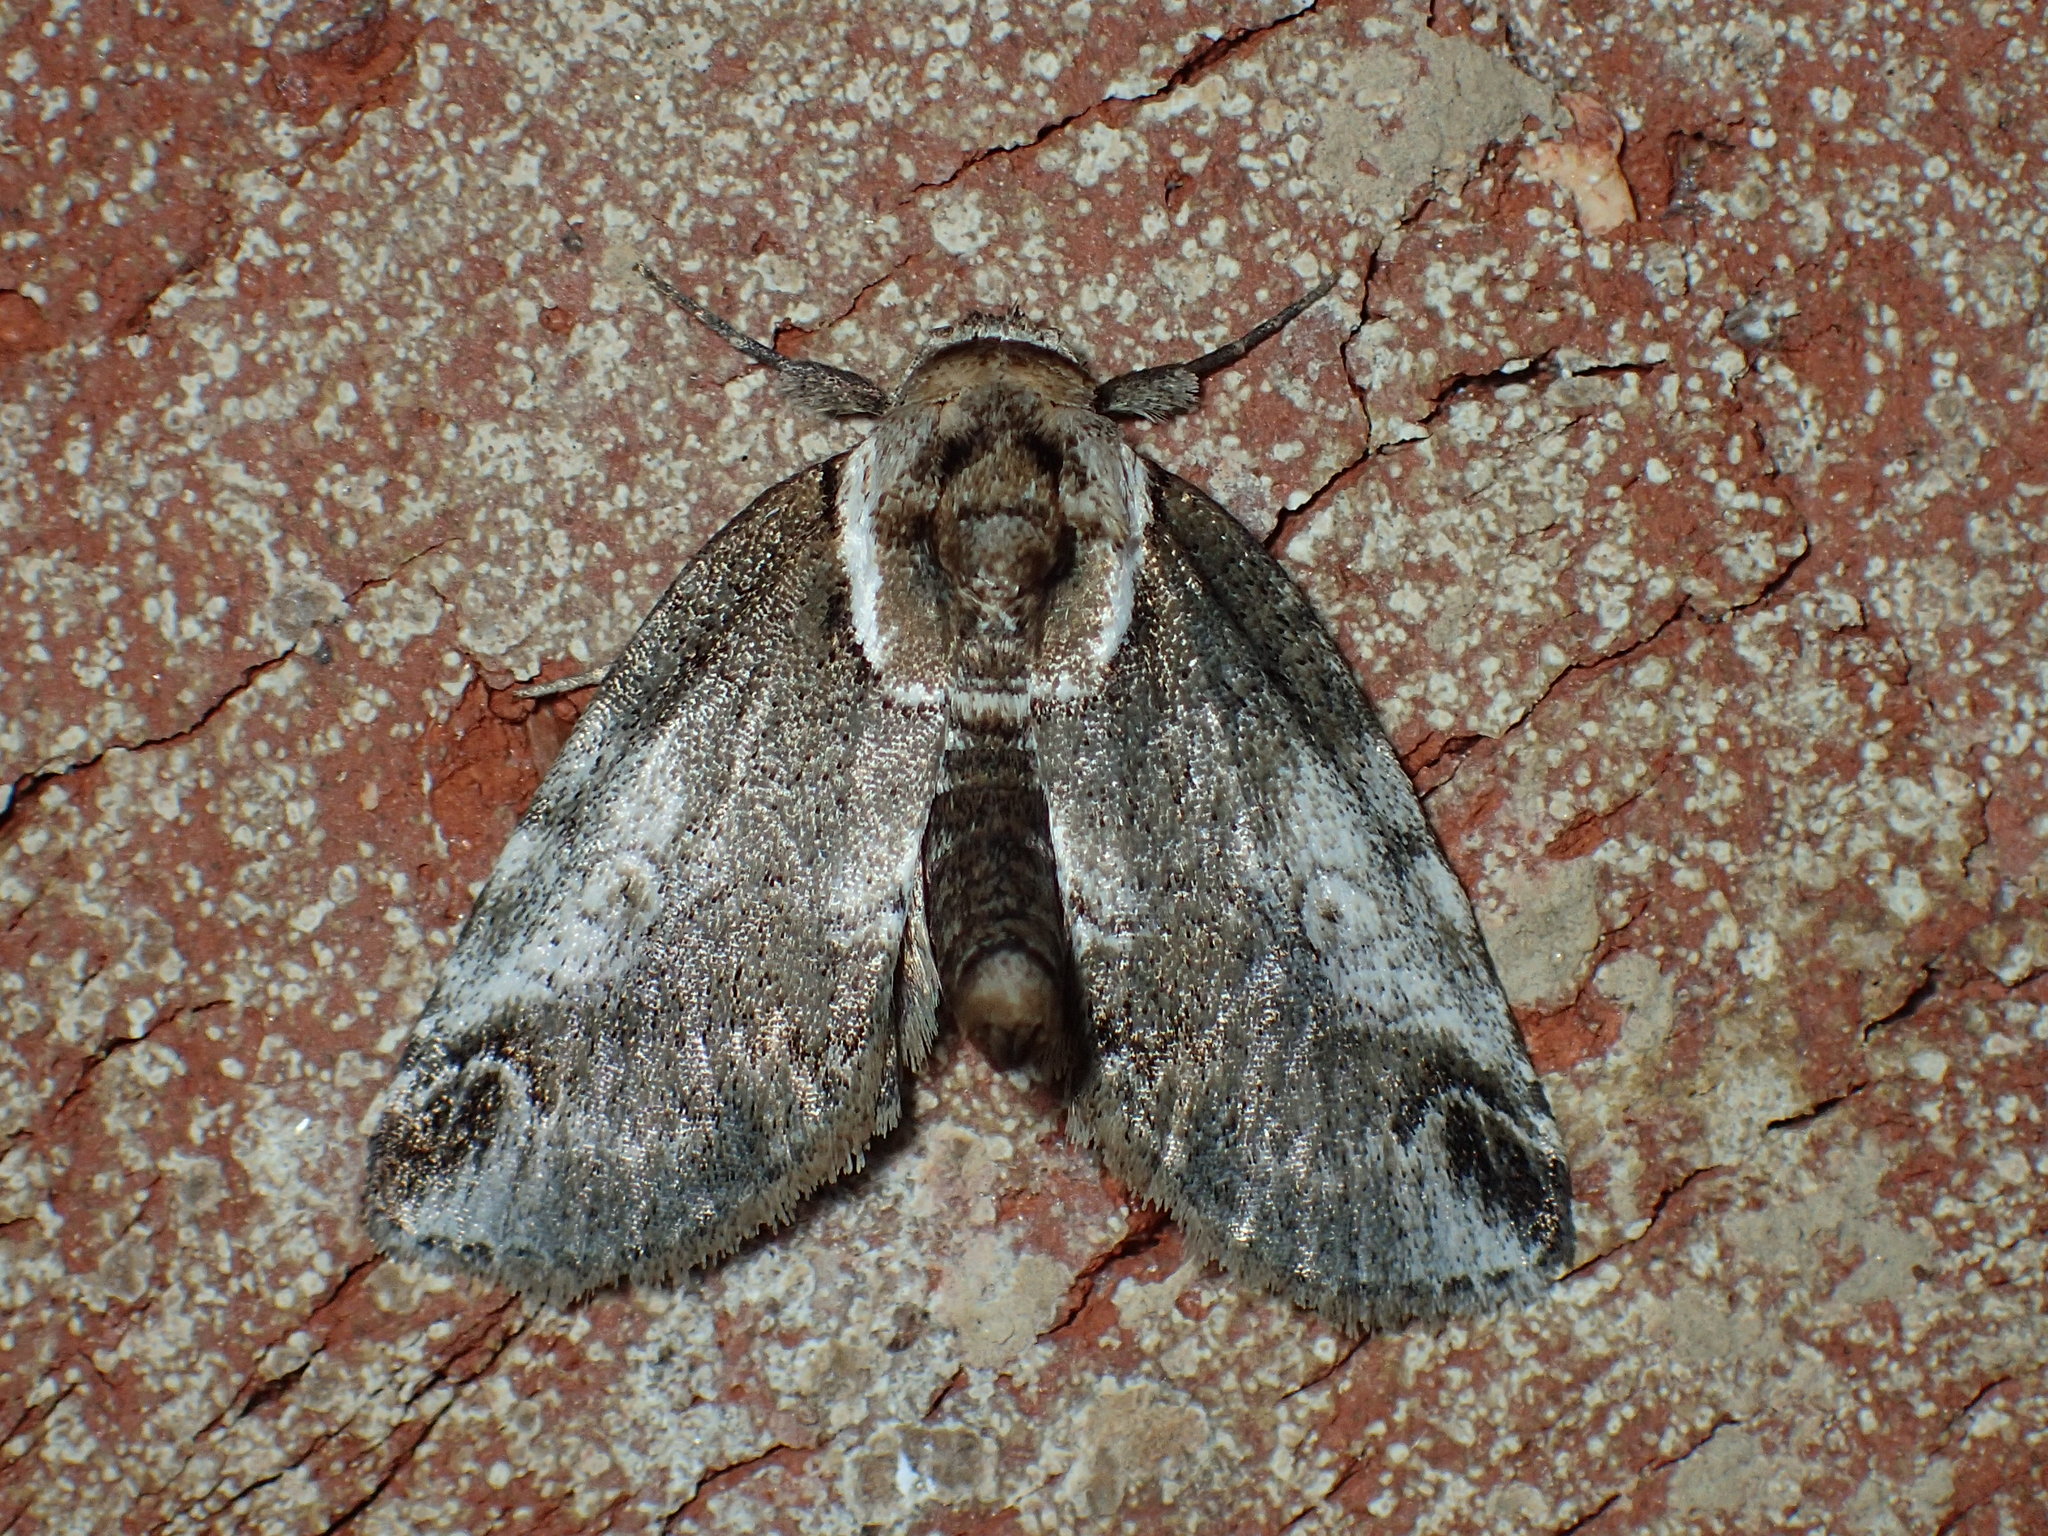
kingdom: Animalia
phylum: Arthropoda
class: Insecta
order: Lepidoptera
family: Nolidae
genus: Baileya
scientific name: Baileya ophthalmica
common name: Eyed baileya moth
